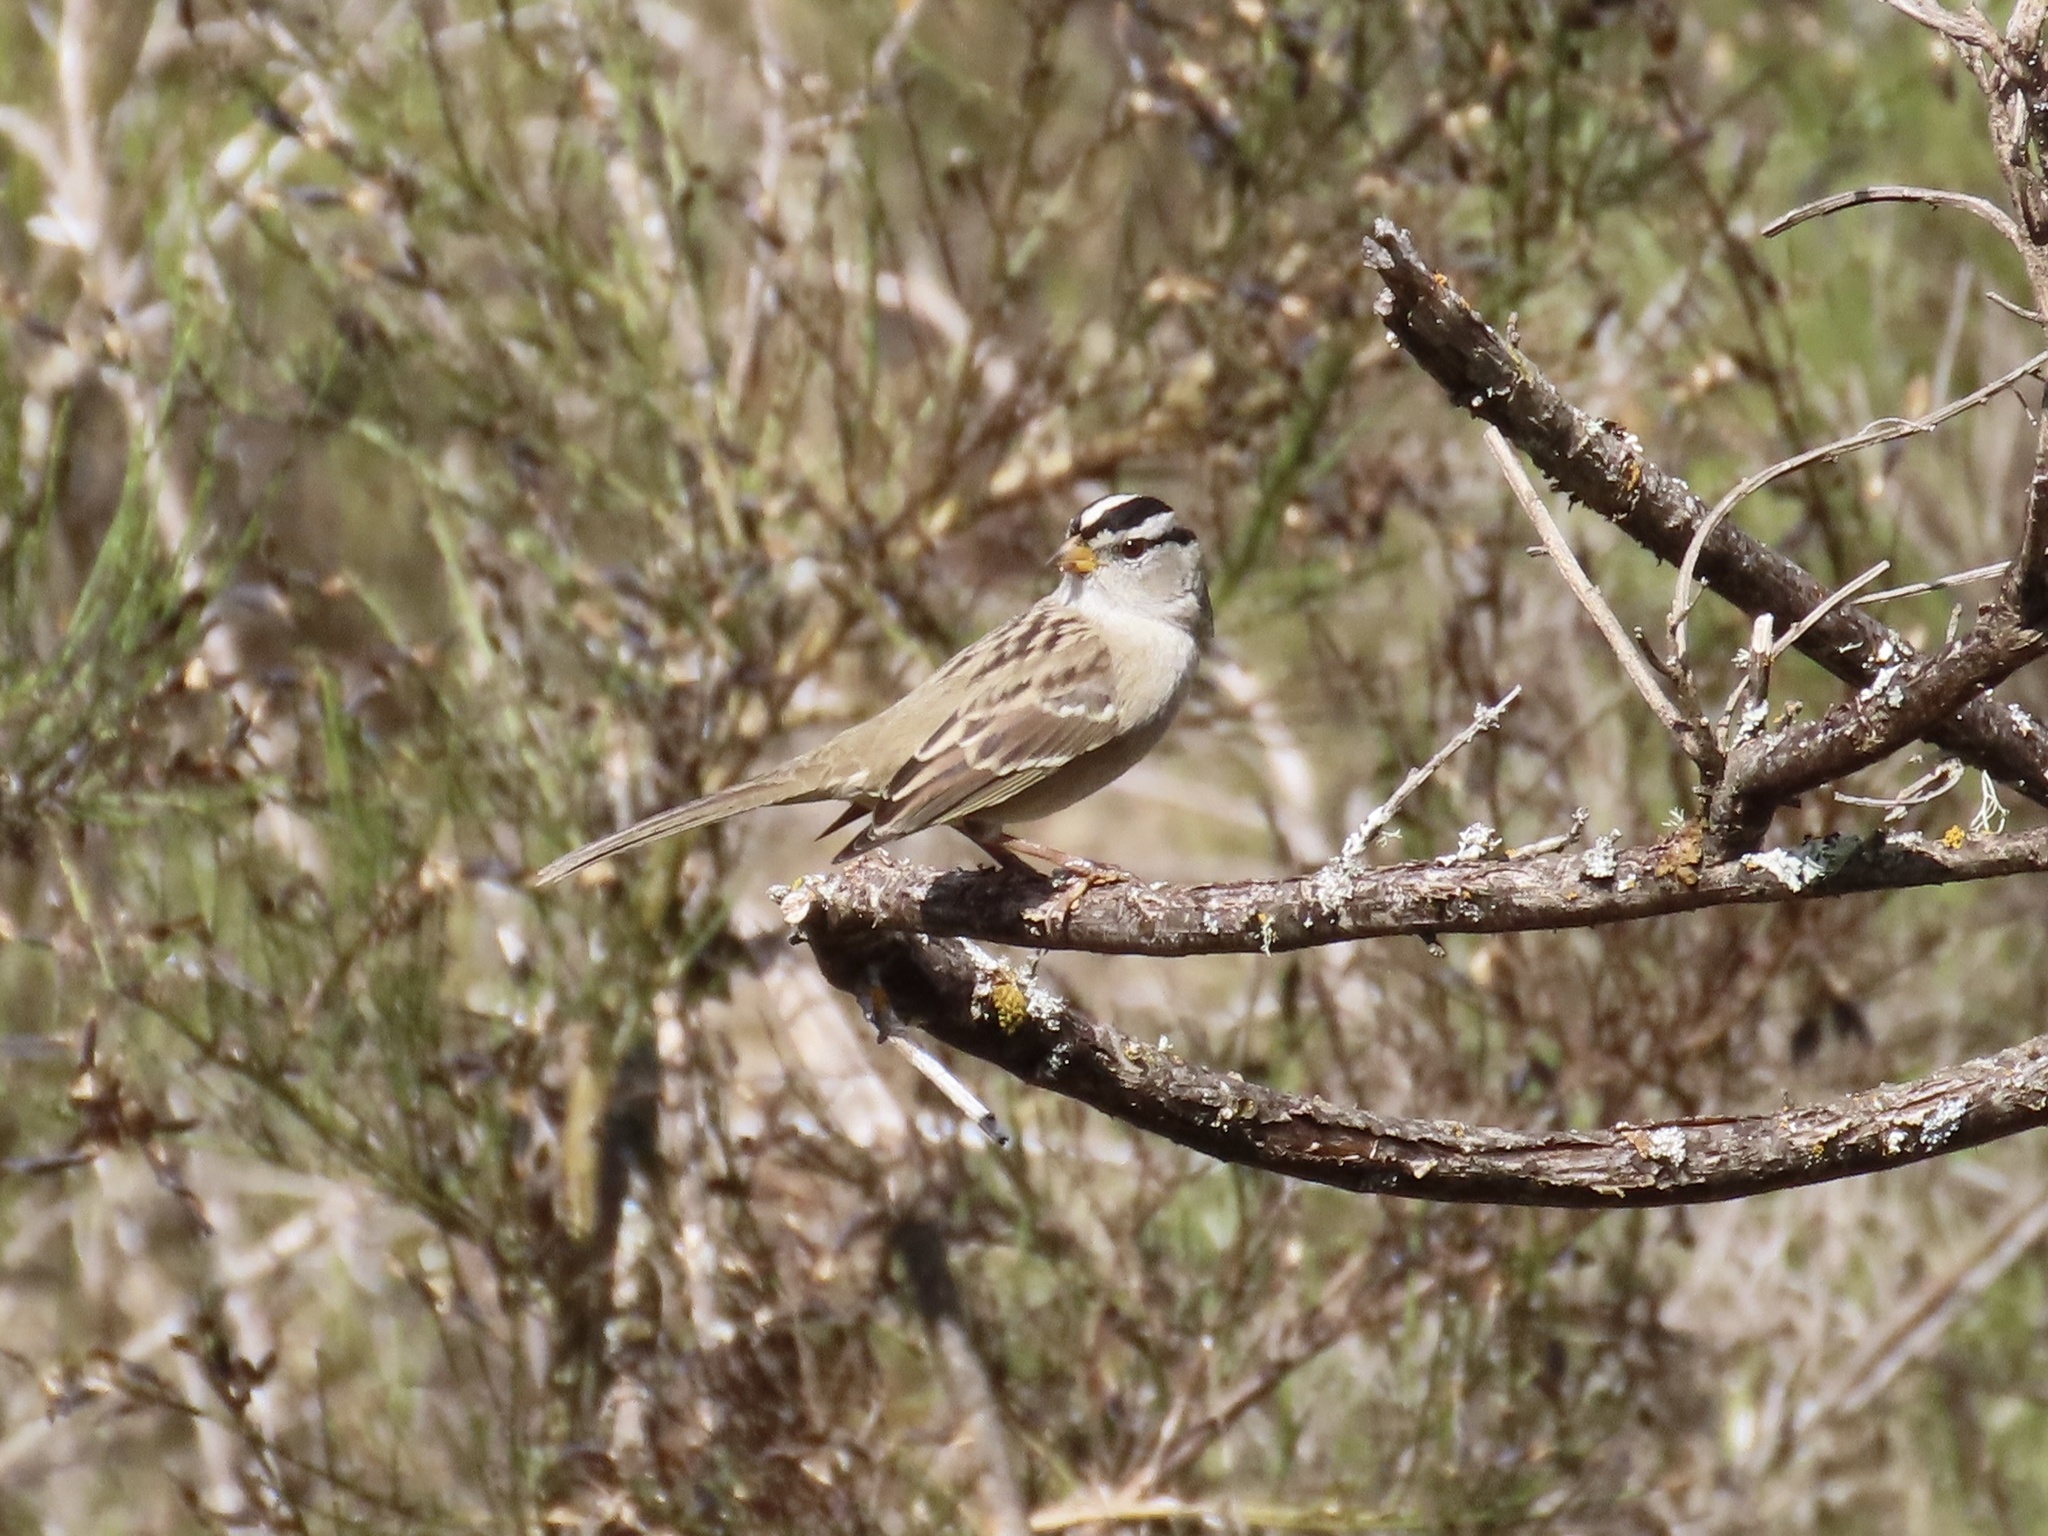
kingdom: Animalia
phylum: Chordata
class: Aves
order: Passeriformes
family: Passerellidae
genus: Zonotrichia
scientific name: Zonotrichia leucophrys
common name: White-crowned sparrow
